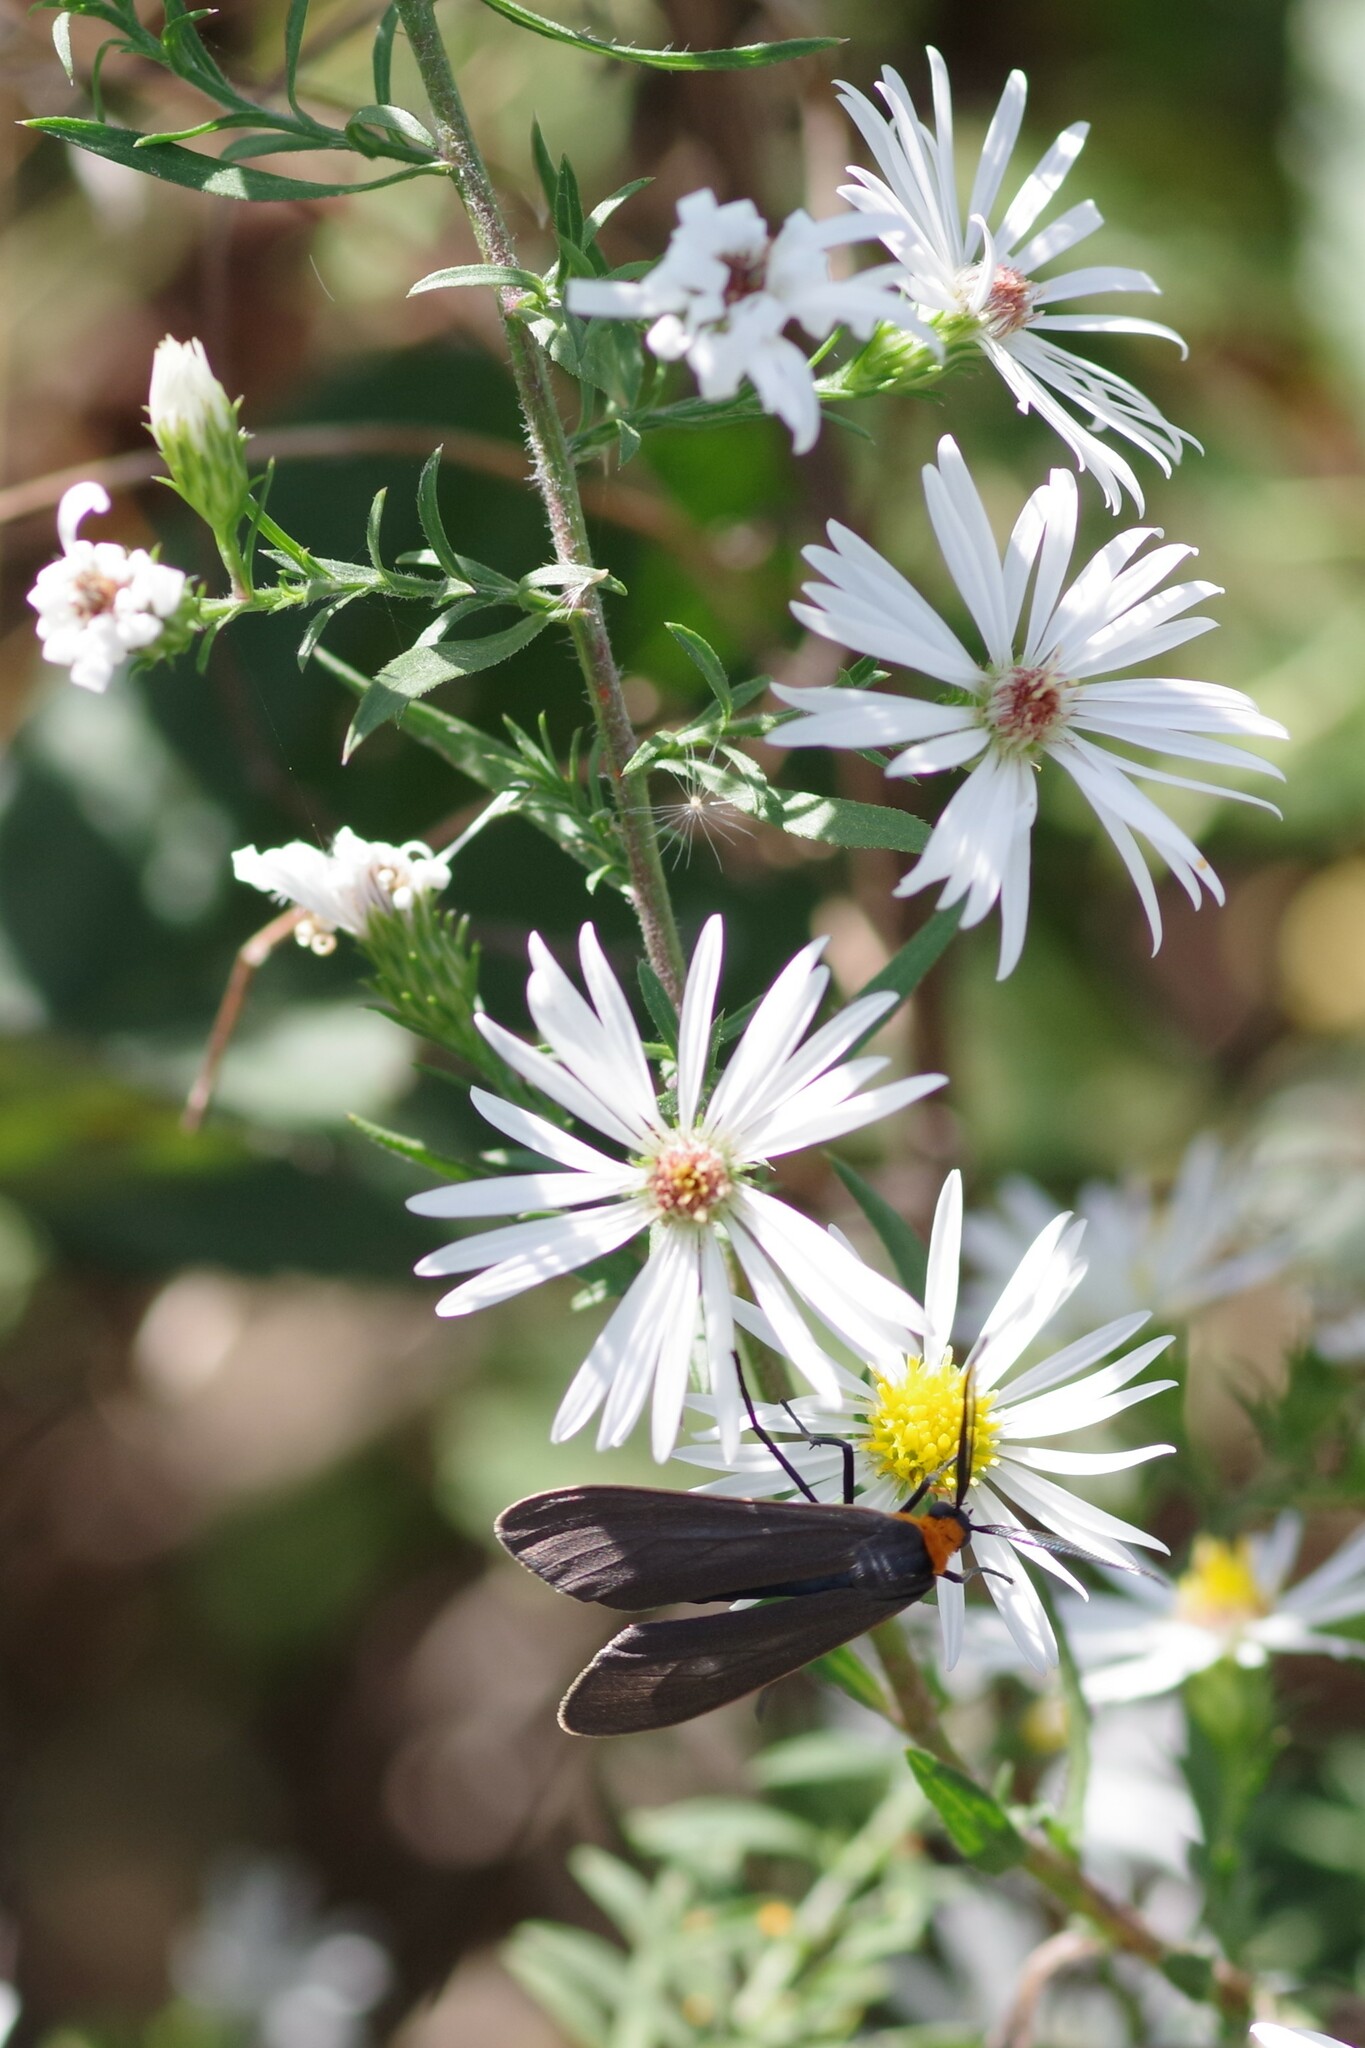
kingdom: Animalia
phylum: Arthropoda
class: Insecta
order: Lepidoptera
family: Erebidae
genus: Cisseps
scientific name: Cisseps fulvicollis
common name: Yellow-collared scape moth
